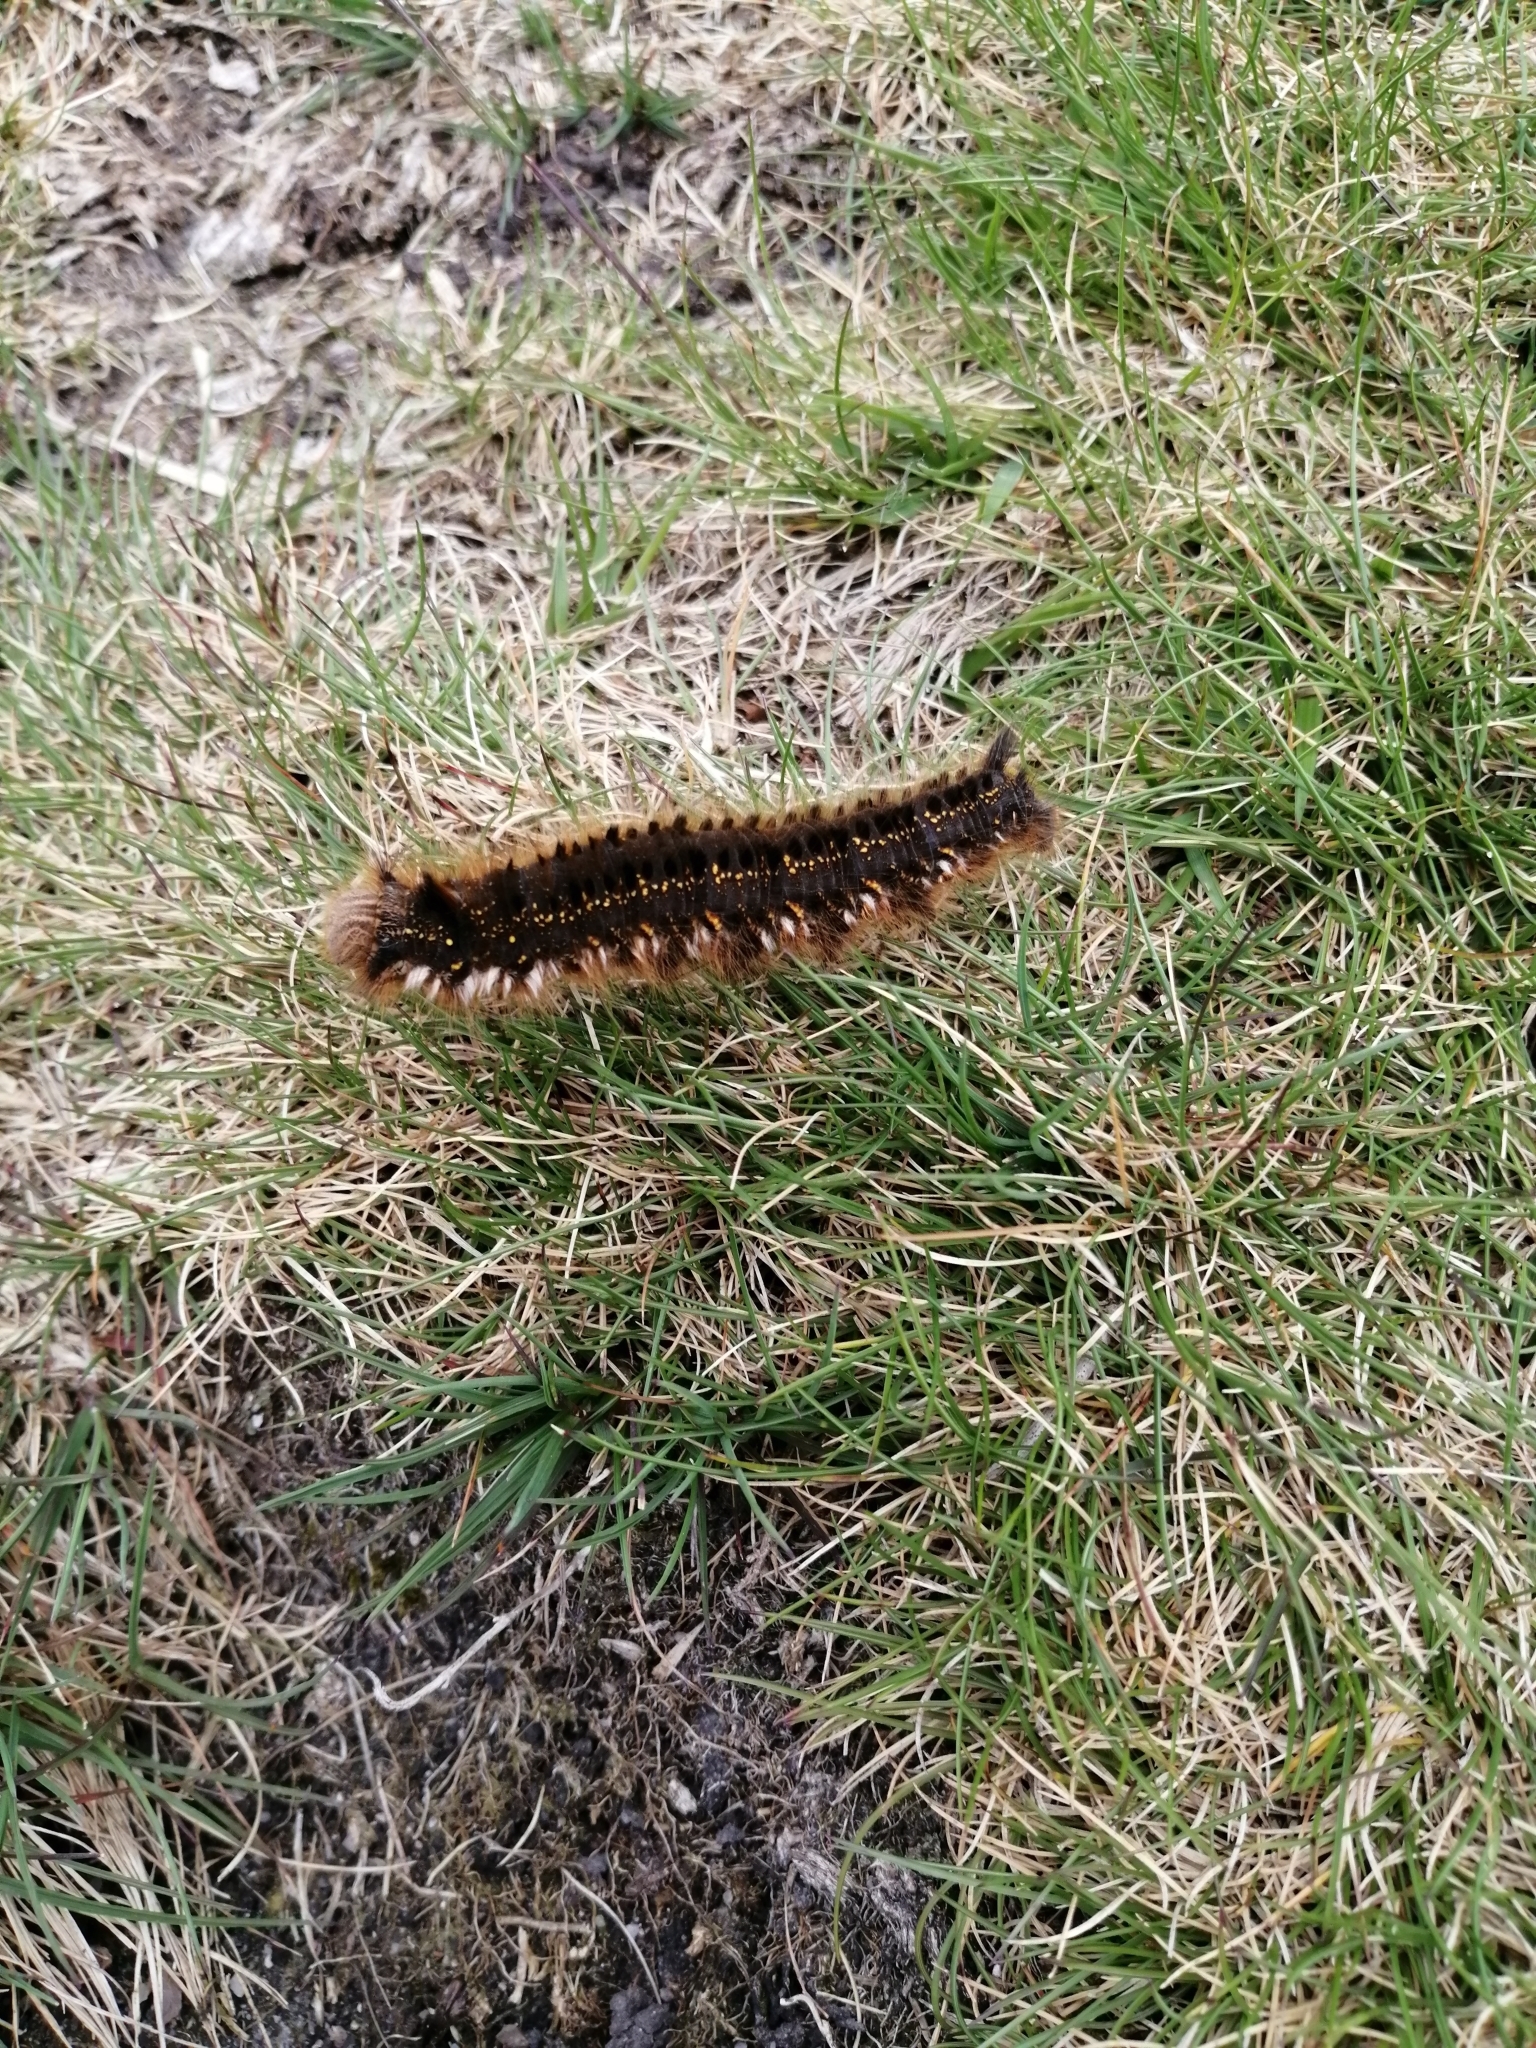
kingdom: Animalia
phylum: Arthropoda
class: Insecta
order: Lepidoptera
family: Lasiocampidae
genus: Euthrix
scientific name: Euthrix potatoria
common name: Drinker
